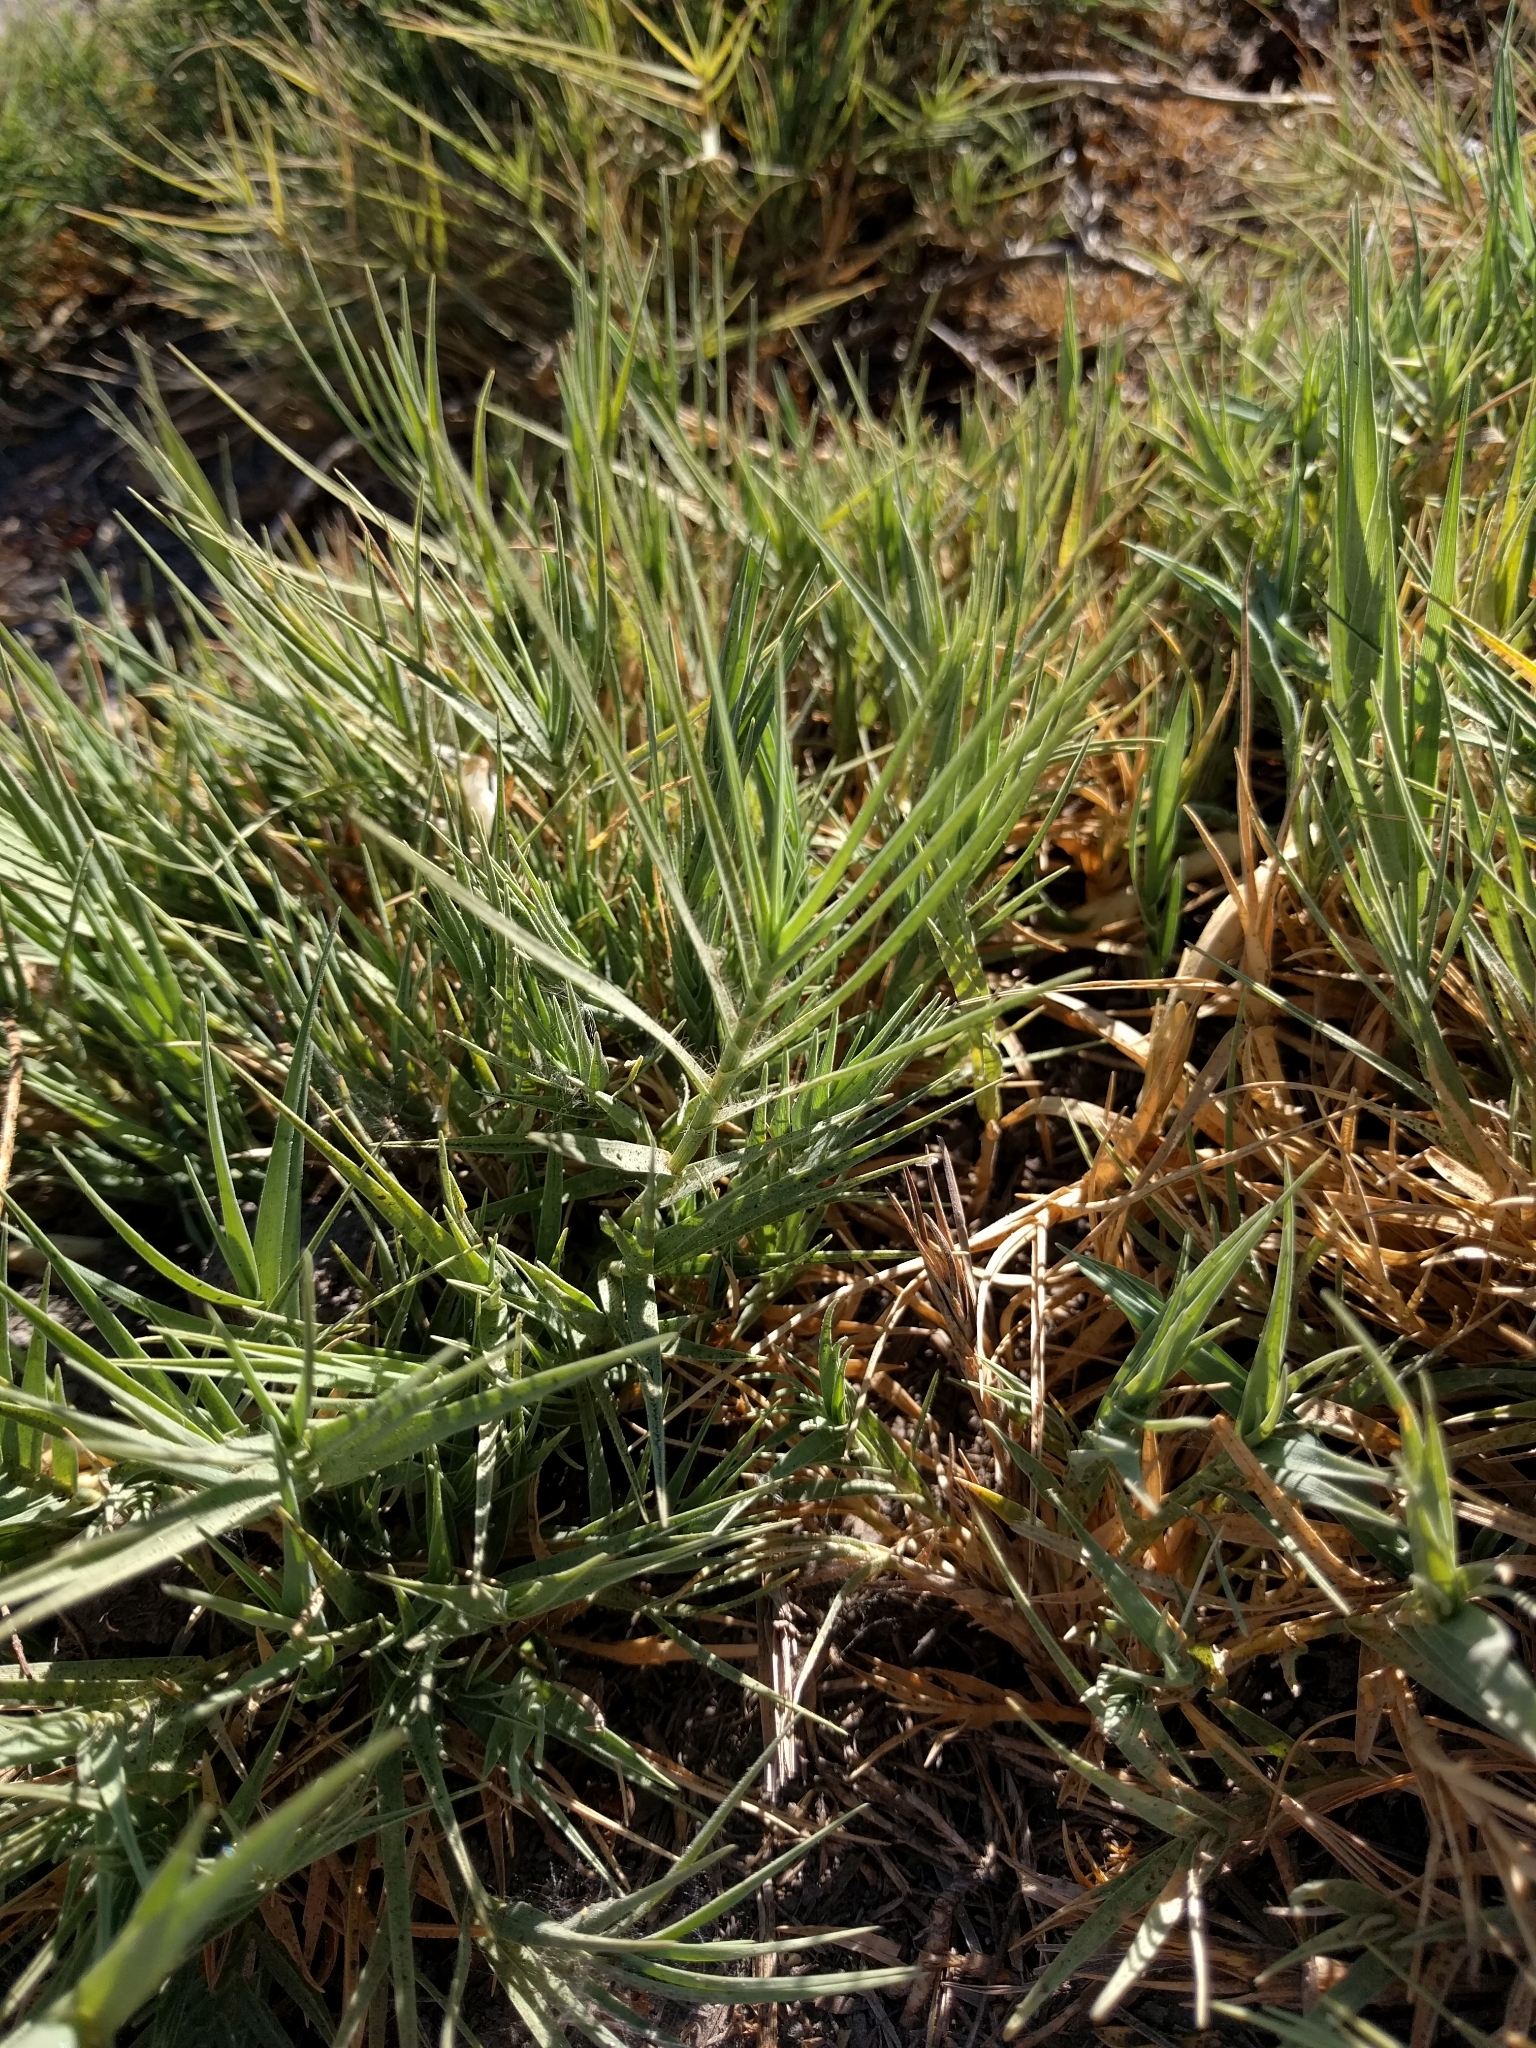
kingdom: Plantae
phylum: Tracheophyta
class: Liliopsida
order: Poales
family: Poaceae
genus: Distichlis
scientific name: Distichlis spicata
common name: Saltgrass
